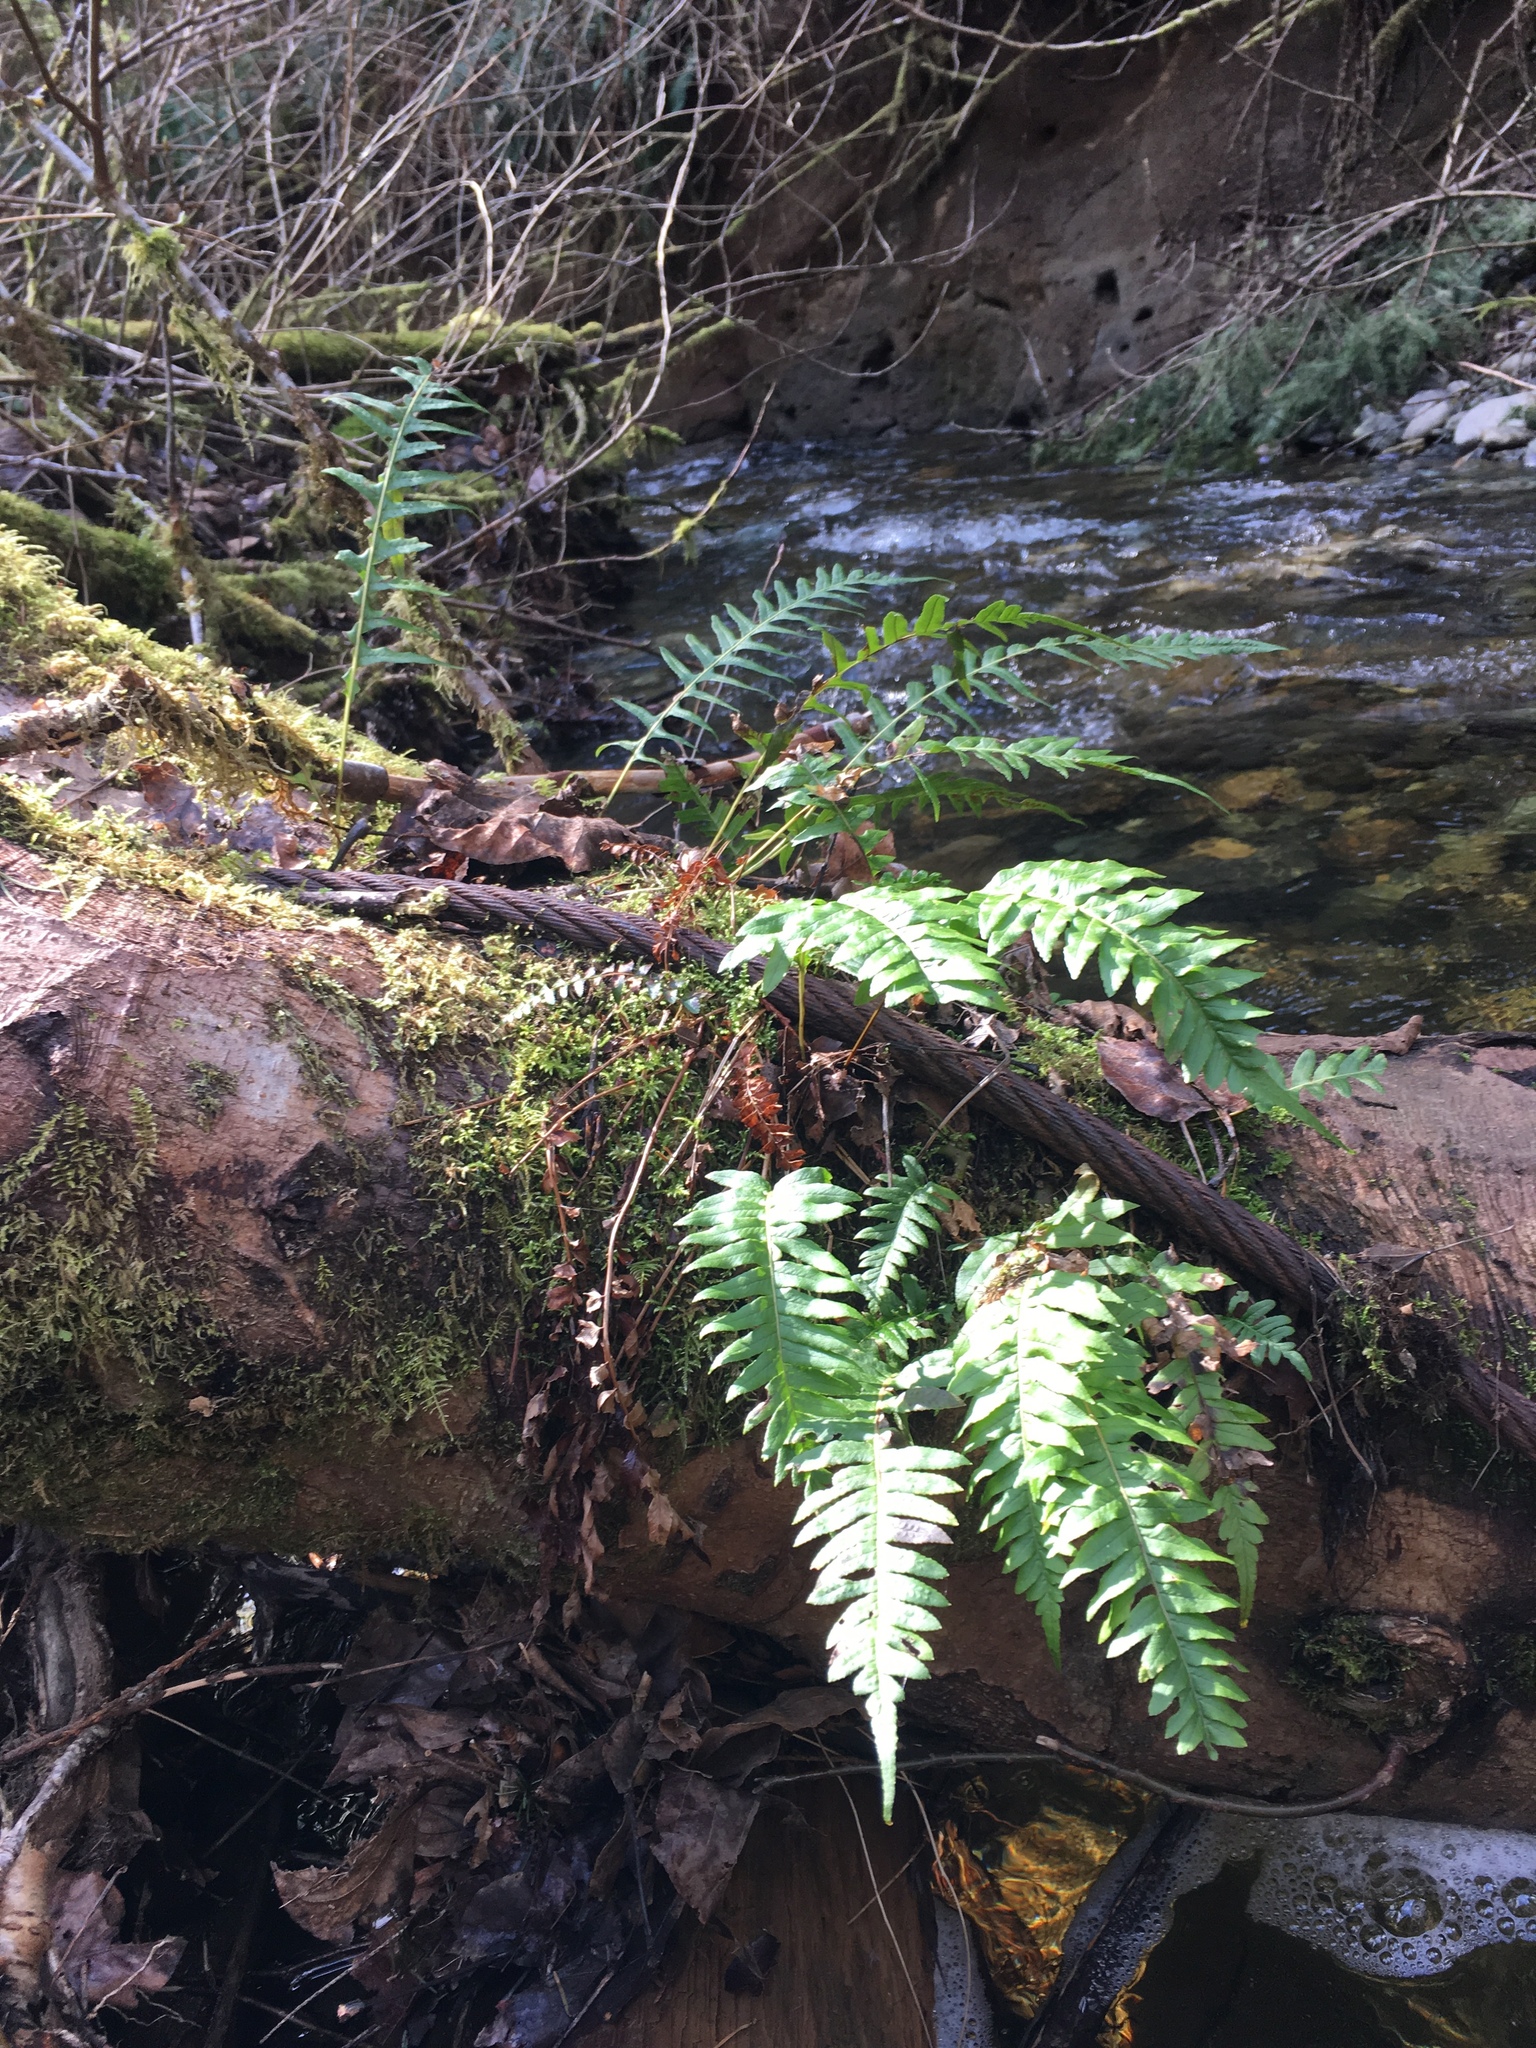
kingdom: Plantae
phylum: Tracheophyta
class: Polypodiopsida
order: Polypodiales
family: Polypodiaceae
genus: Polypodium
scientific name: Polypodium glycyrrhiza
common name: Licorice fern
